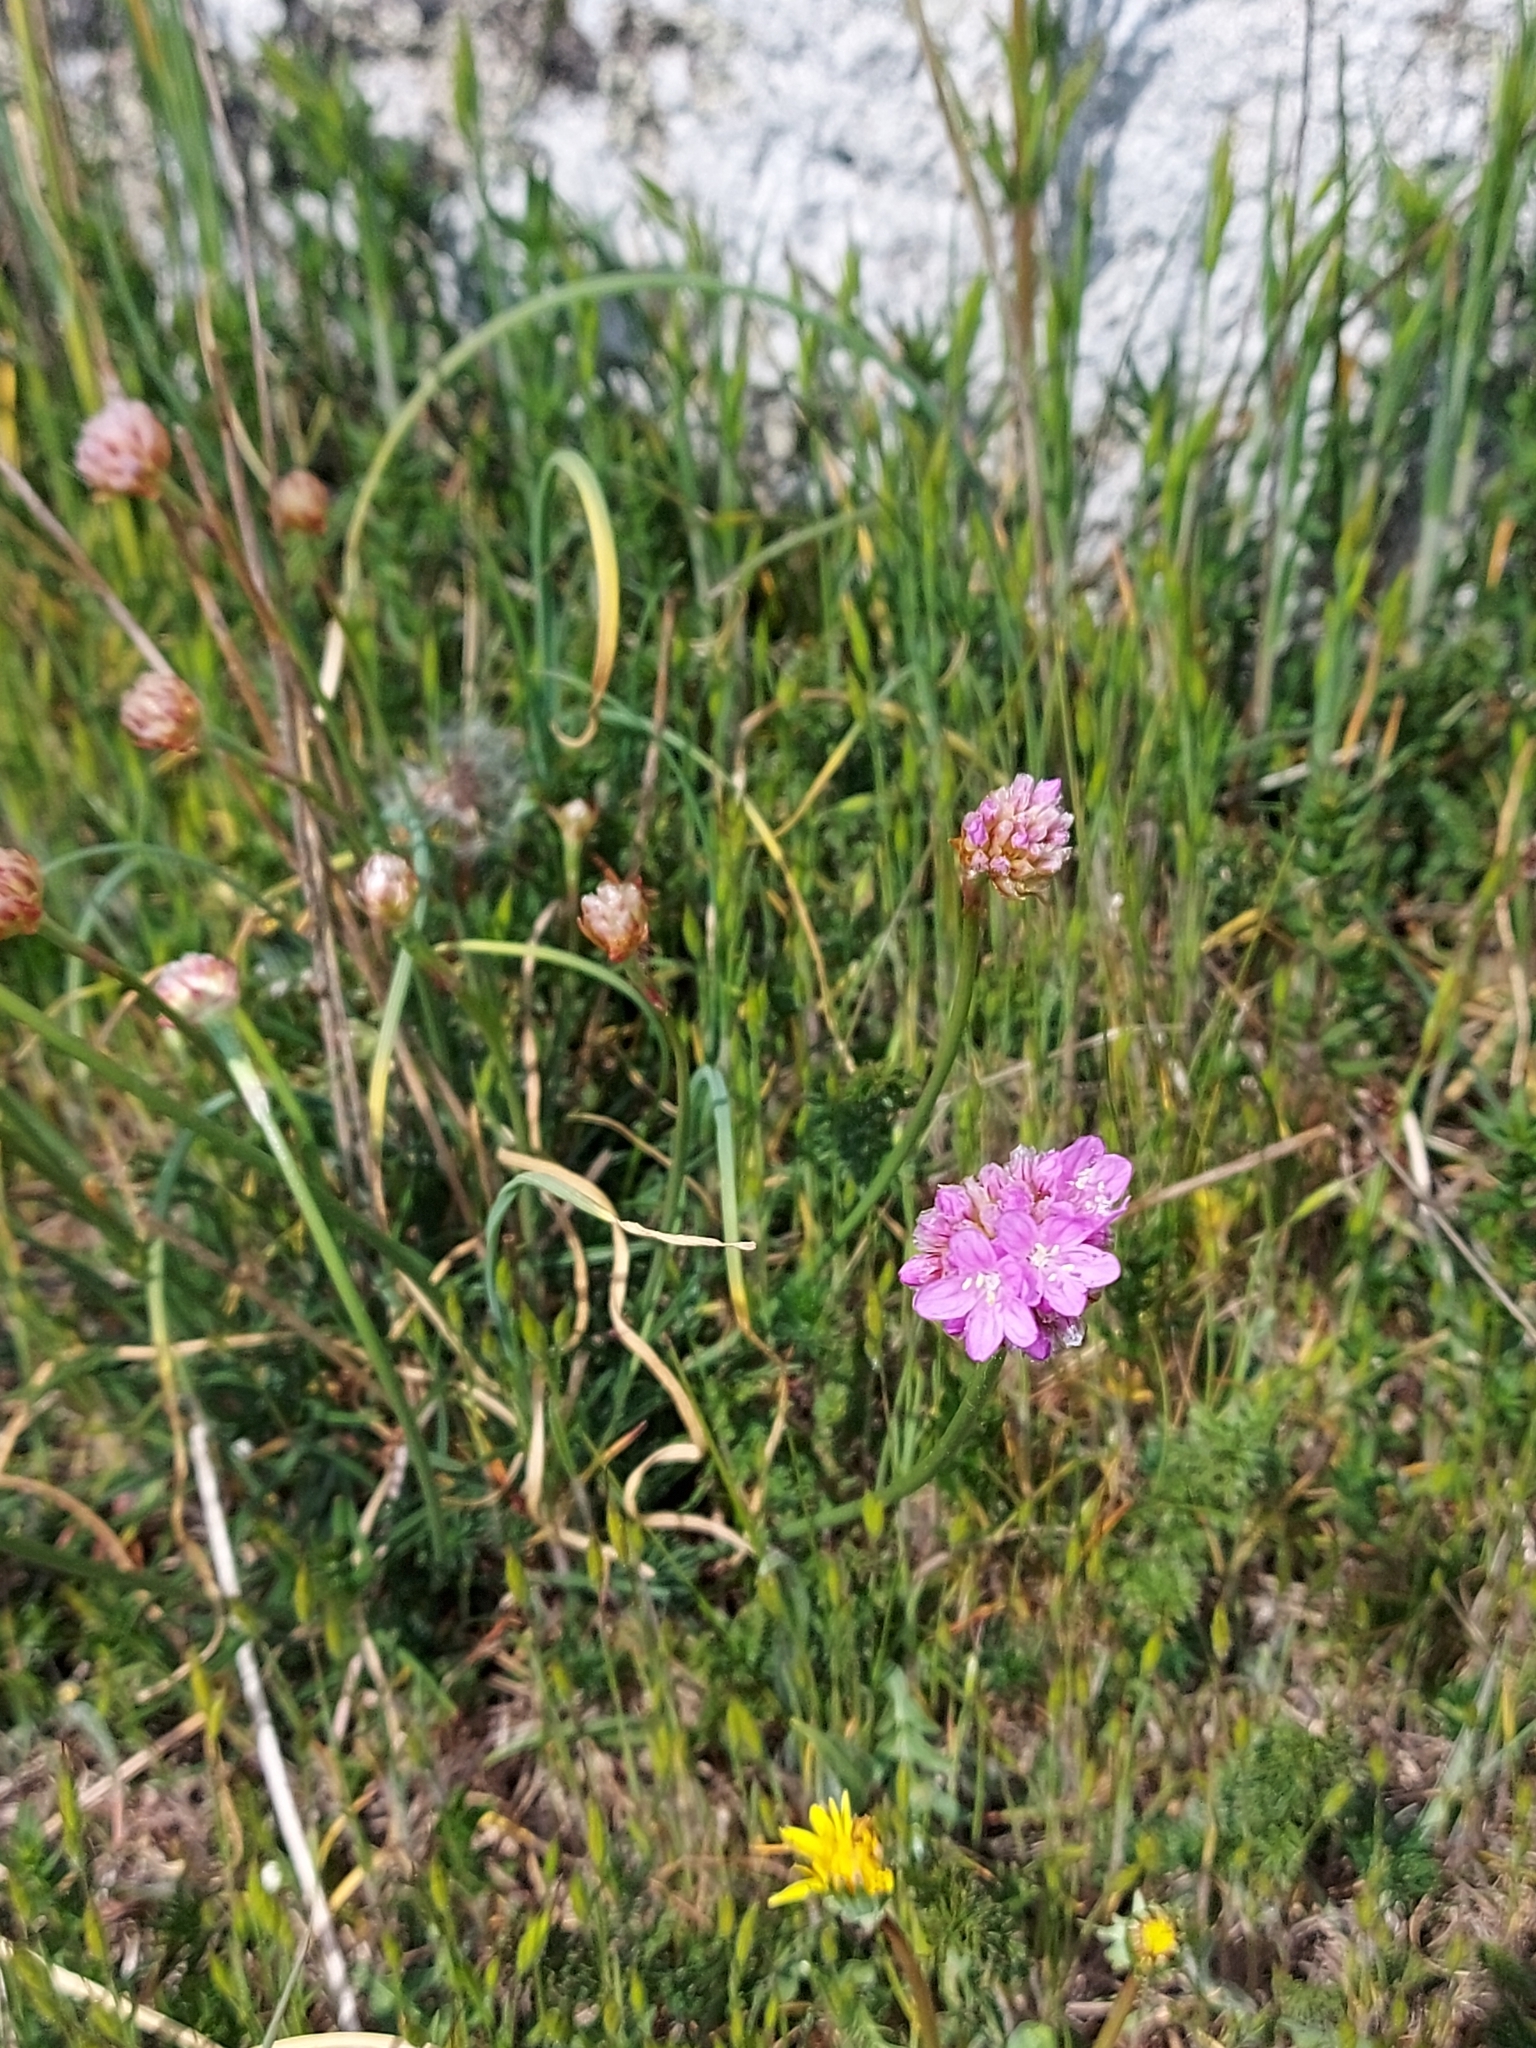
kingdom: Plantae
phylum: Tracheophyta
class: Magnoliopsida
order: Caryophyllales
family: Plumbaginaceae
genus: Armeria
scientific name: Armeria maritima
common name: Thrift
